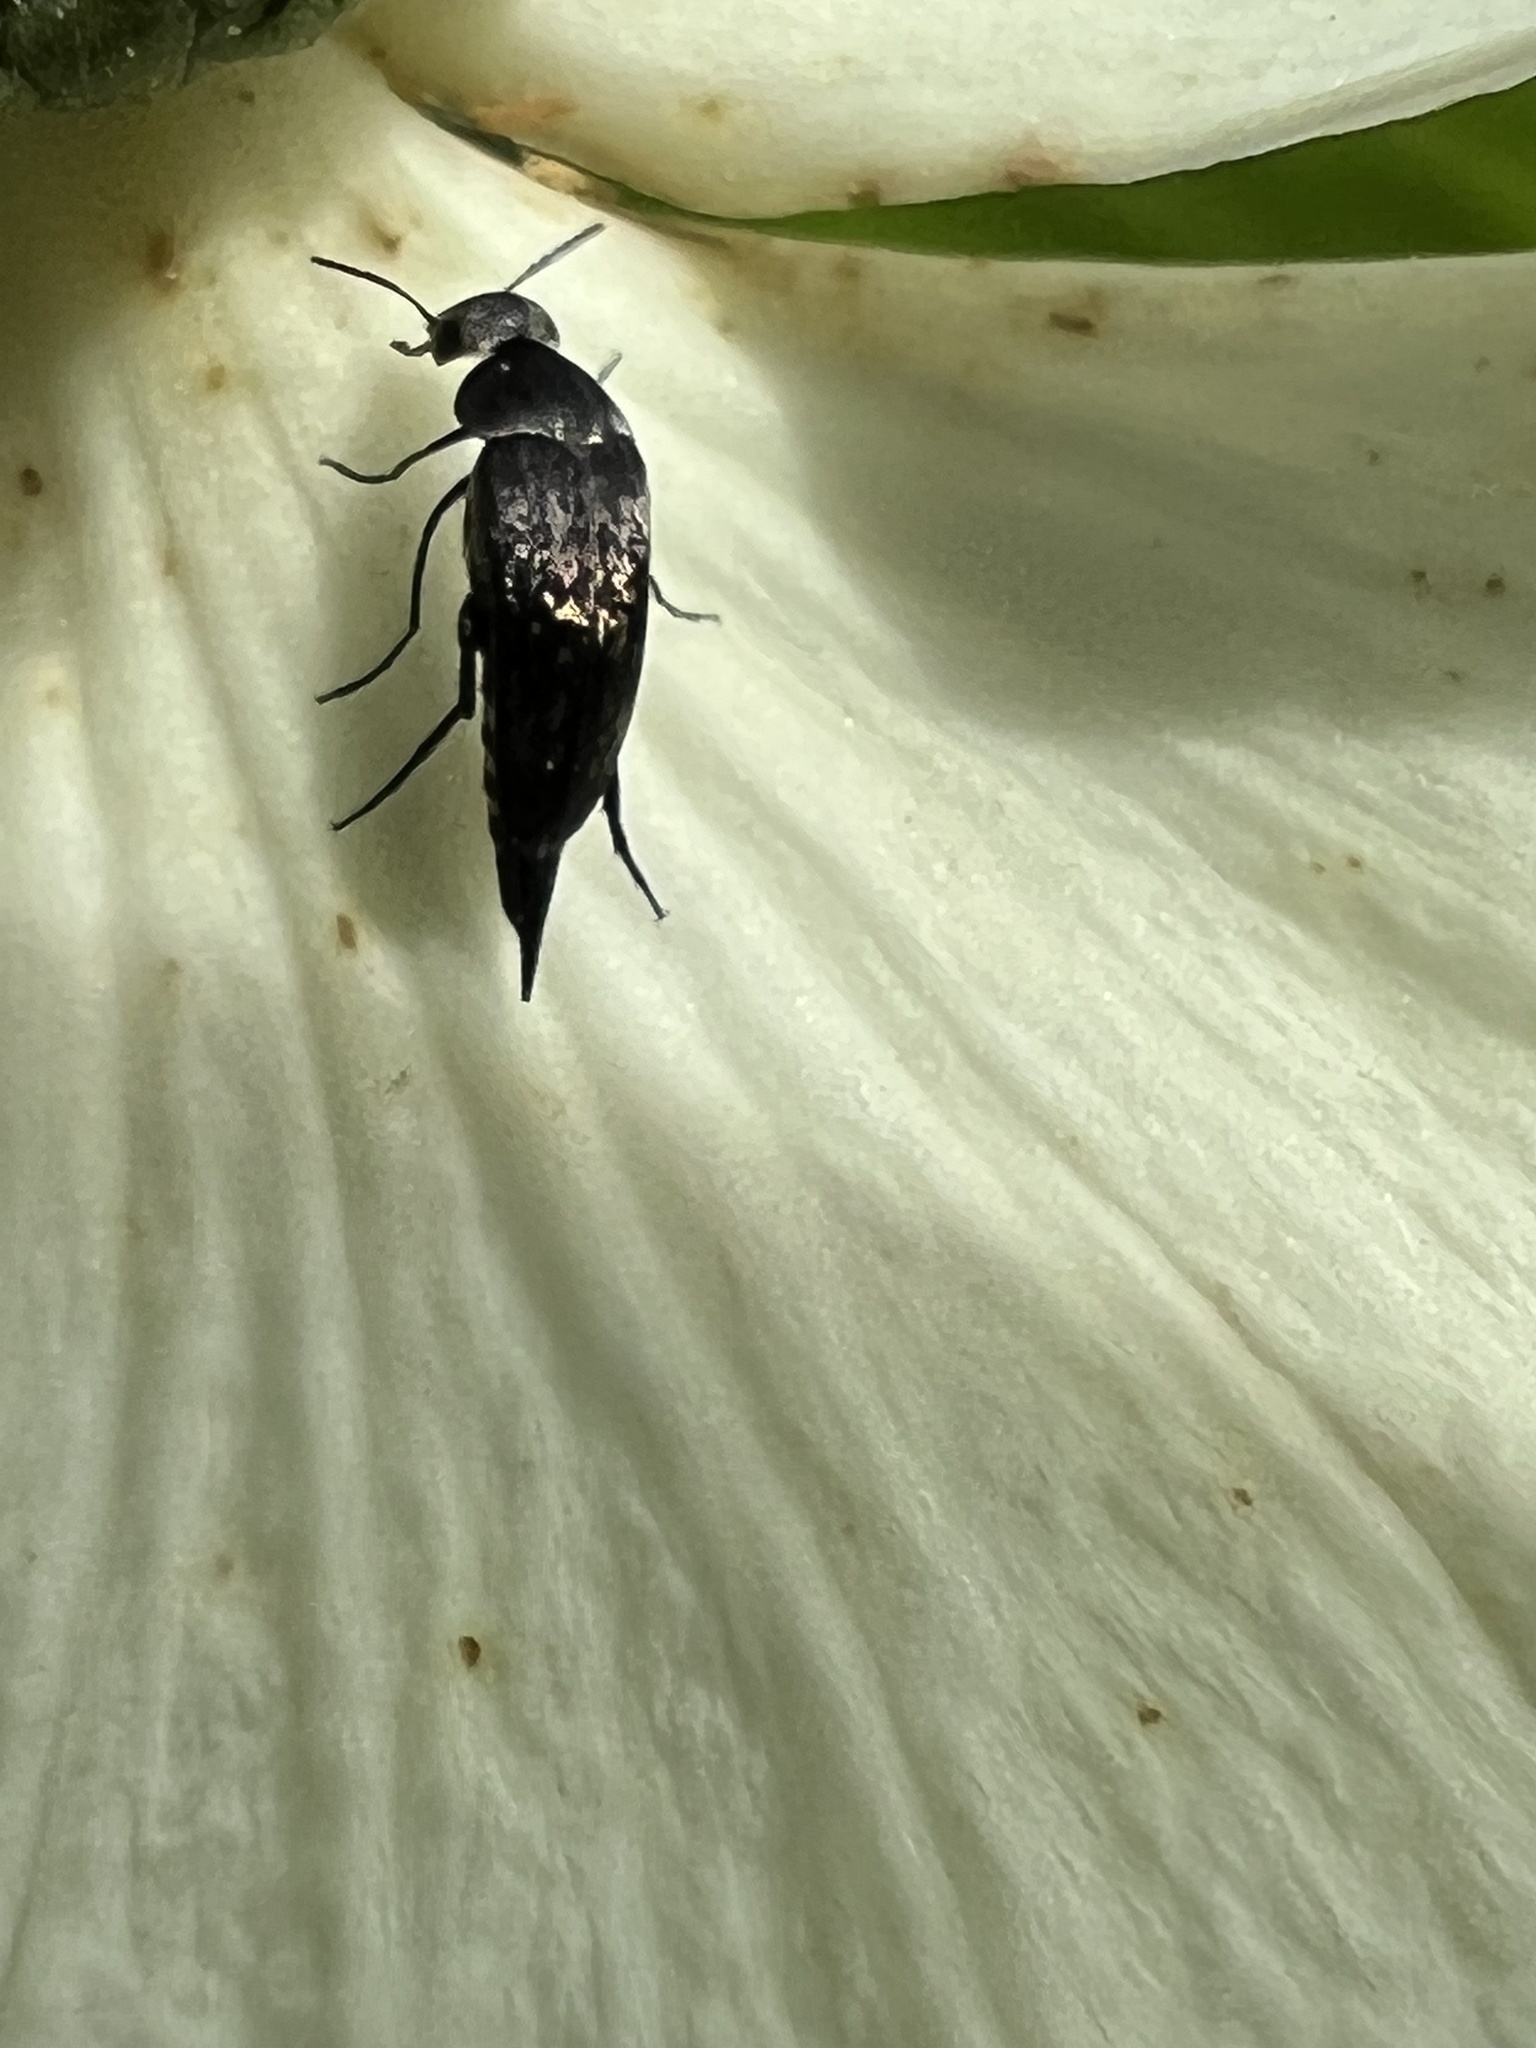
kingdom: Animalia
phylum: Arthropoda
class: Insecta
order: Coleoptera
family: Mordellidae
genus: Mordella
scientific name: Mordella marginata
